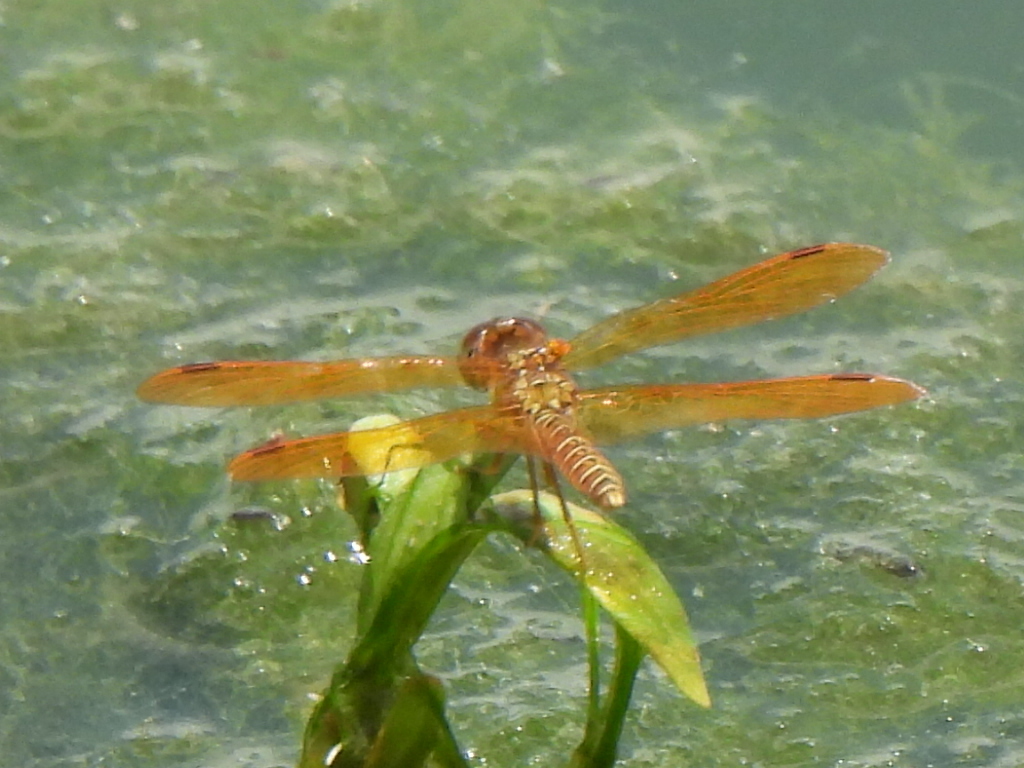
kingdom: Animalia
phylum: Arthropoda
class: Insecta
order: Odonata
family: Libellulidae
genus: Perithemis
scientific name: Perithemis tenera
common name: Eastern amberwing
